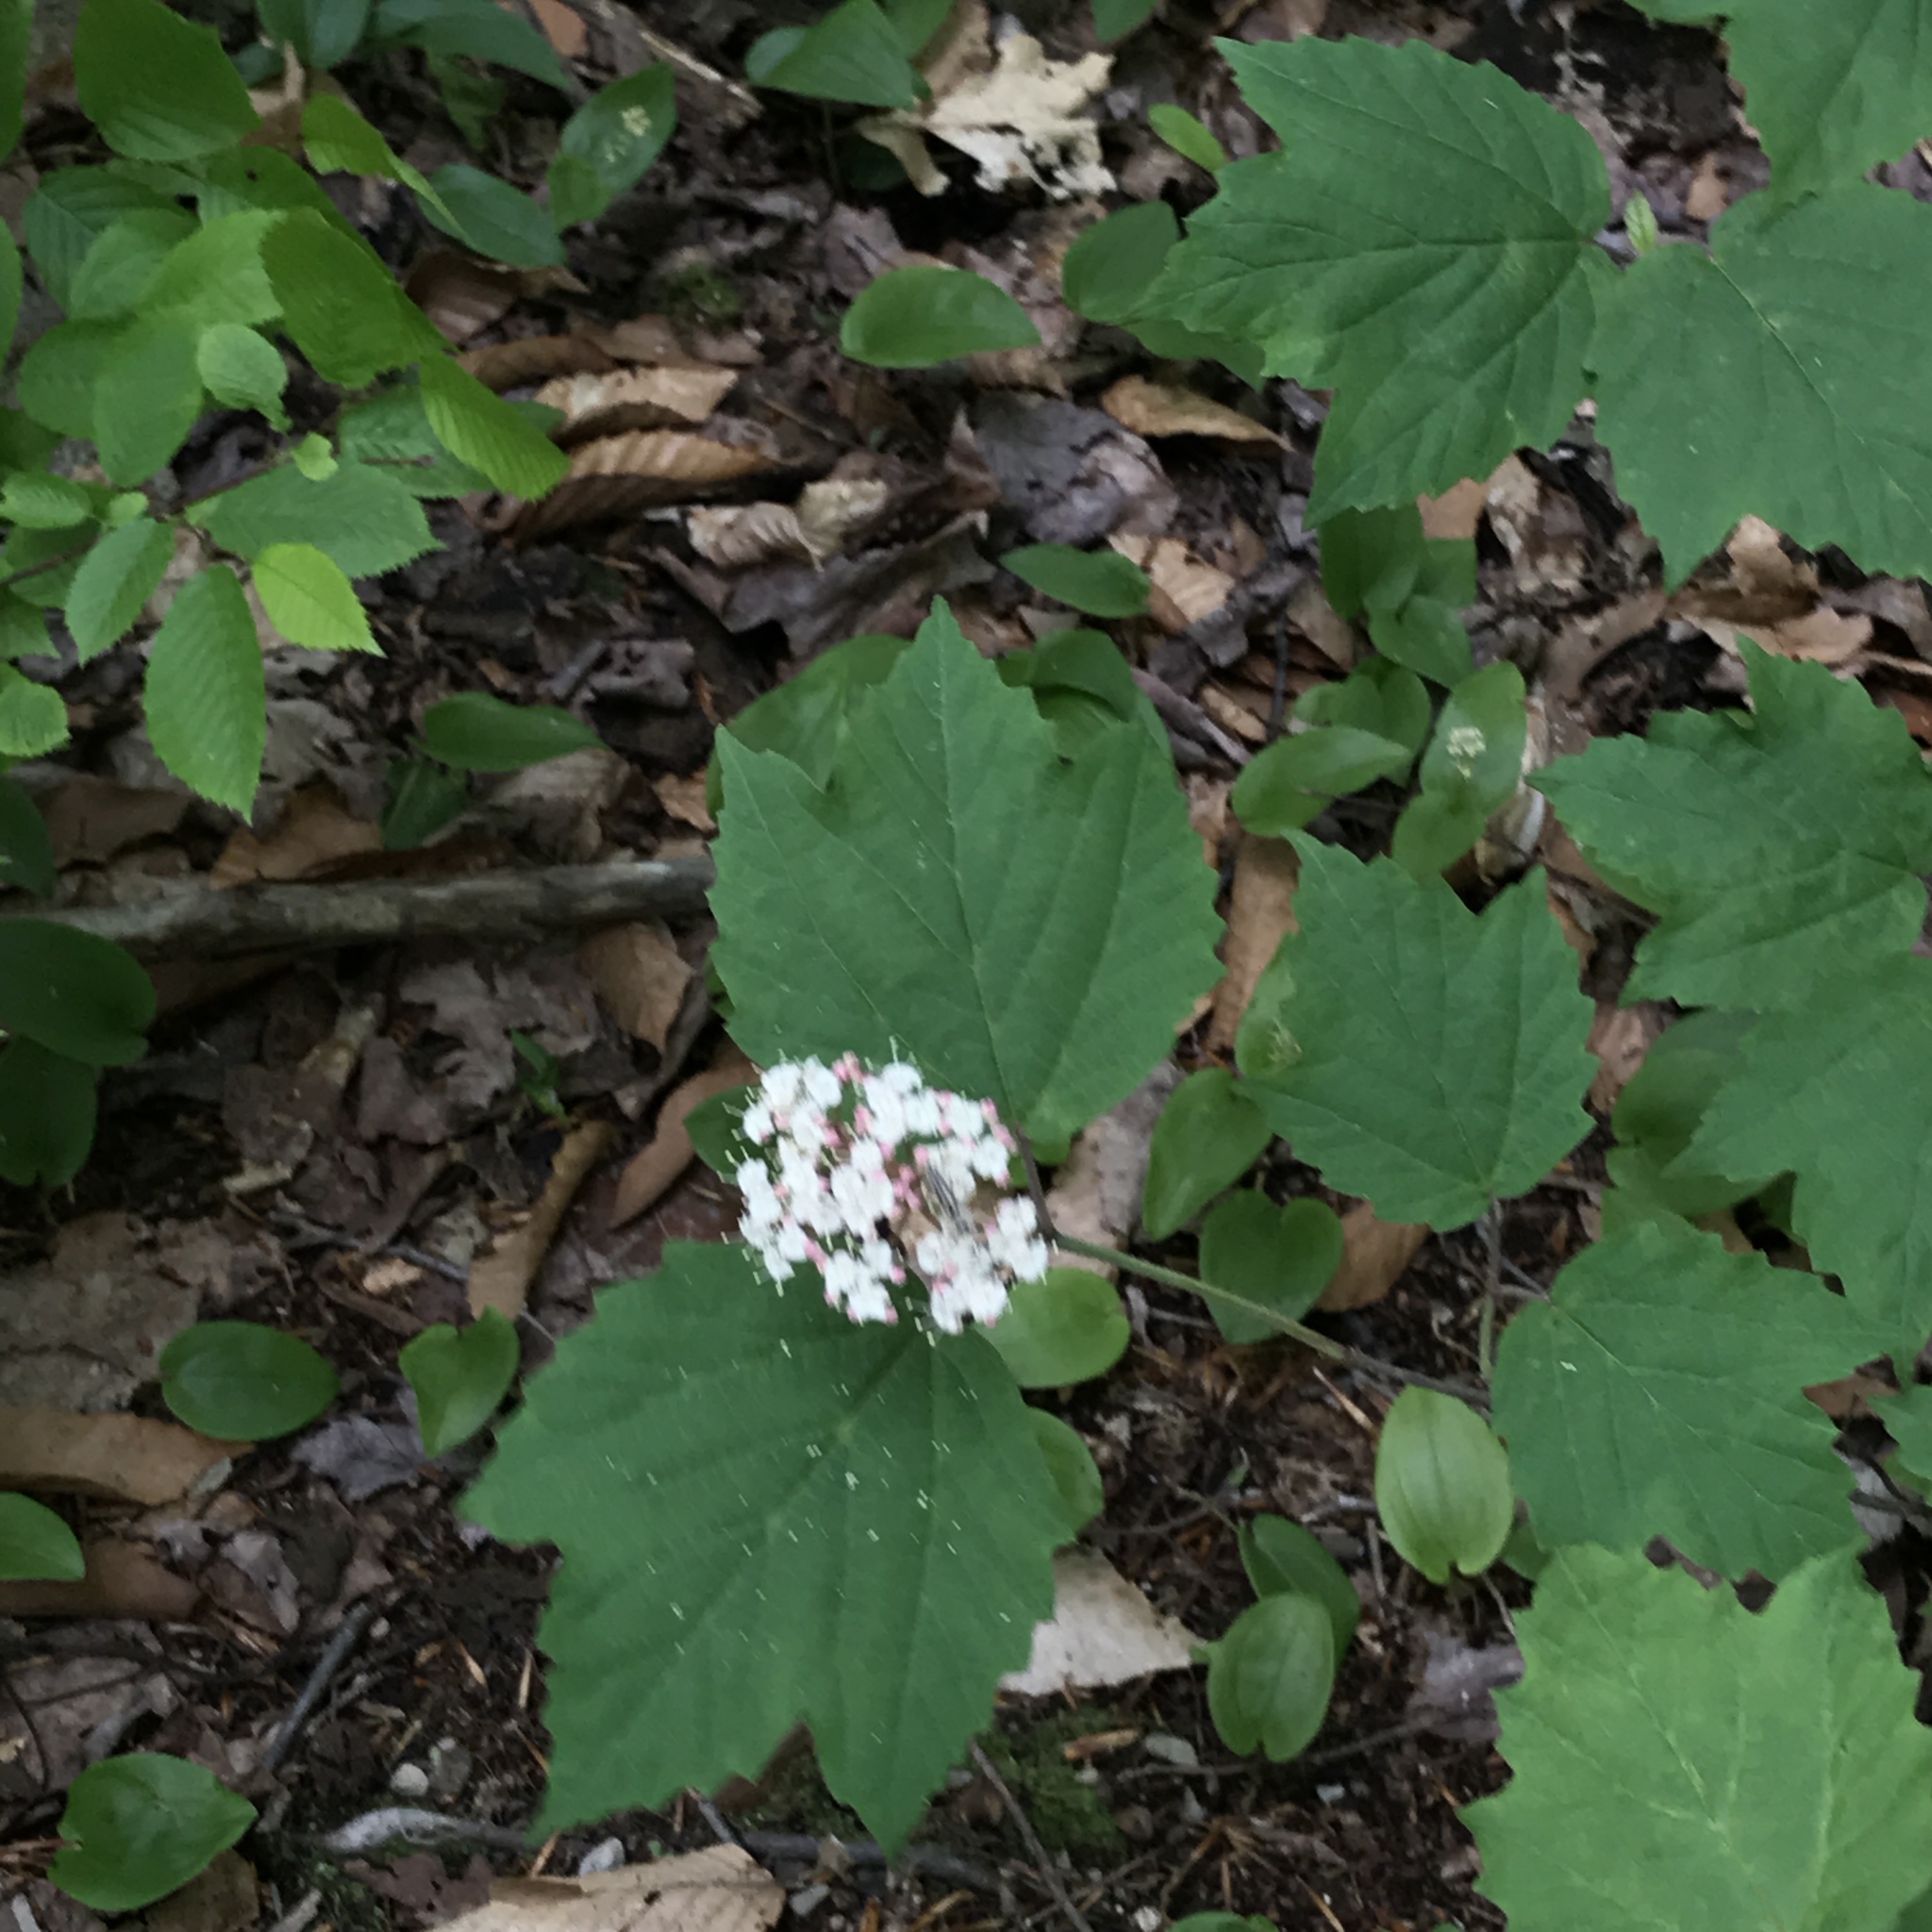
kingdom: Plantae
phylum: Tracheophyta
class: Magnoliopsida
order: Dipsacales
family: Viburnaceae
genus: Viburnum
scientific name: Viburnum acerifolium
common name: Dockmackie
